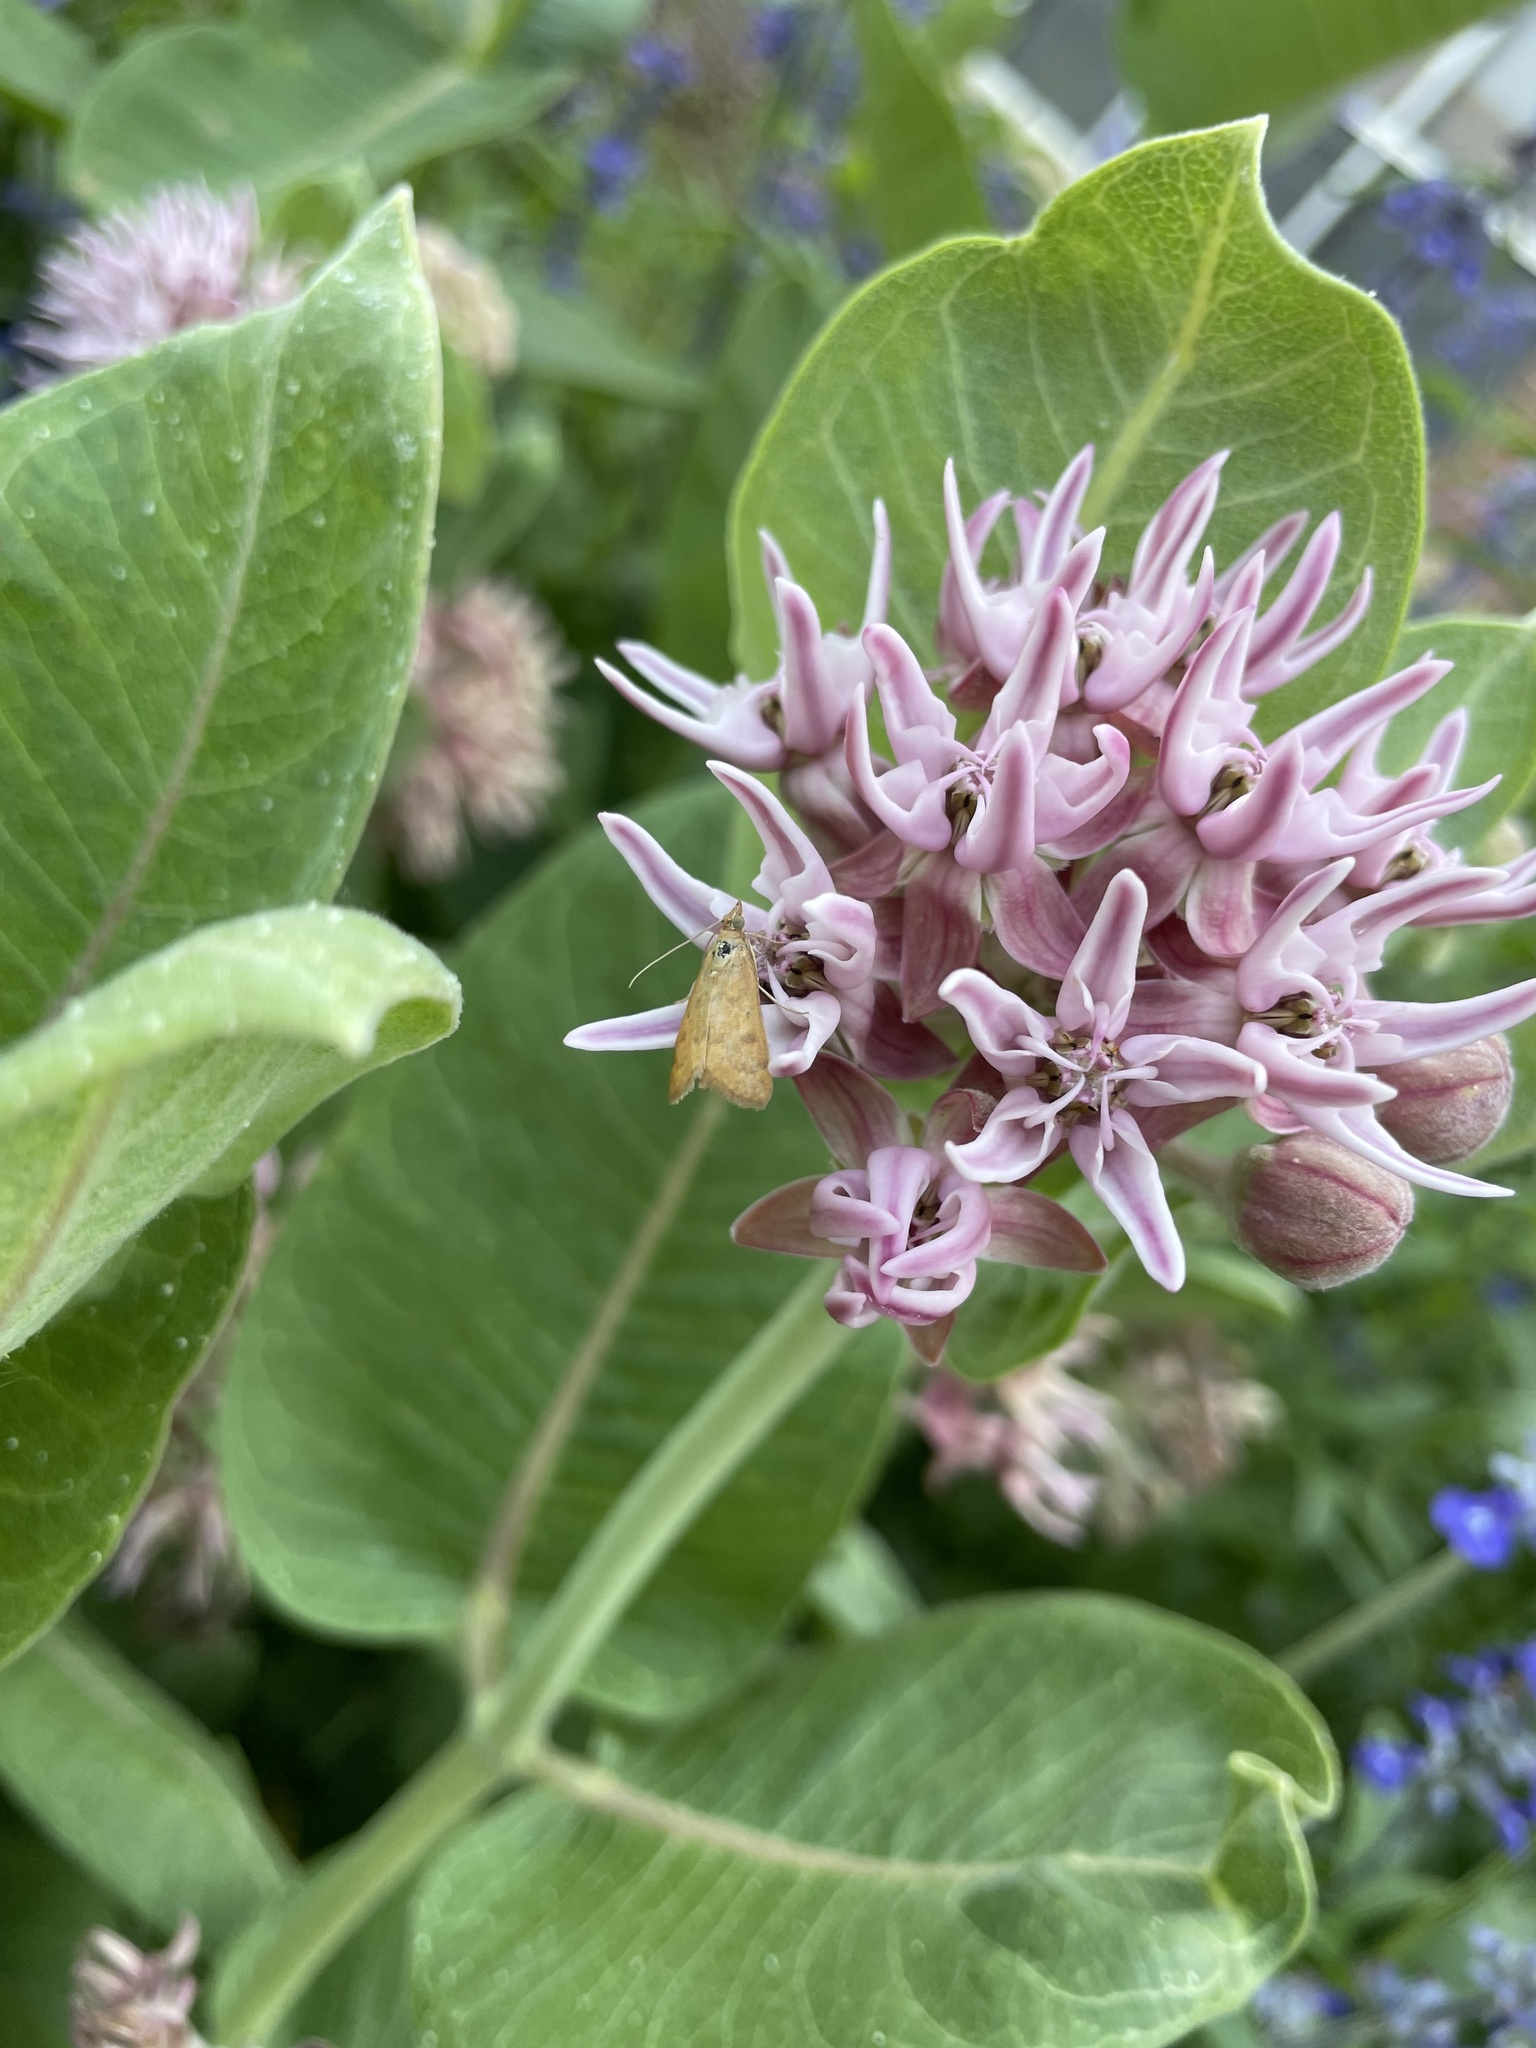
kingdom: Animalia
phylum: Arthropoda
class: Insecta
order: Lepidoptera
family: Crambidae
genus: Achyra
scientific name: Achyra rantalis
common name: Garden webworm
